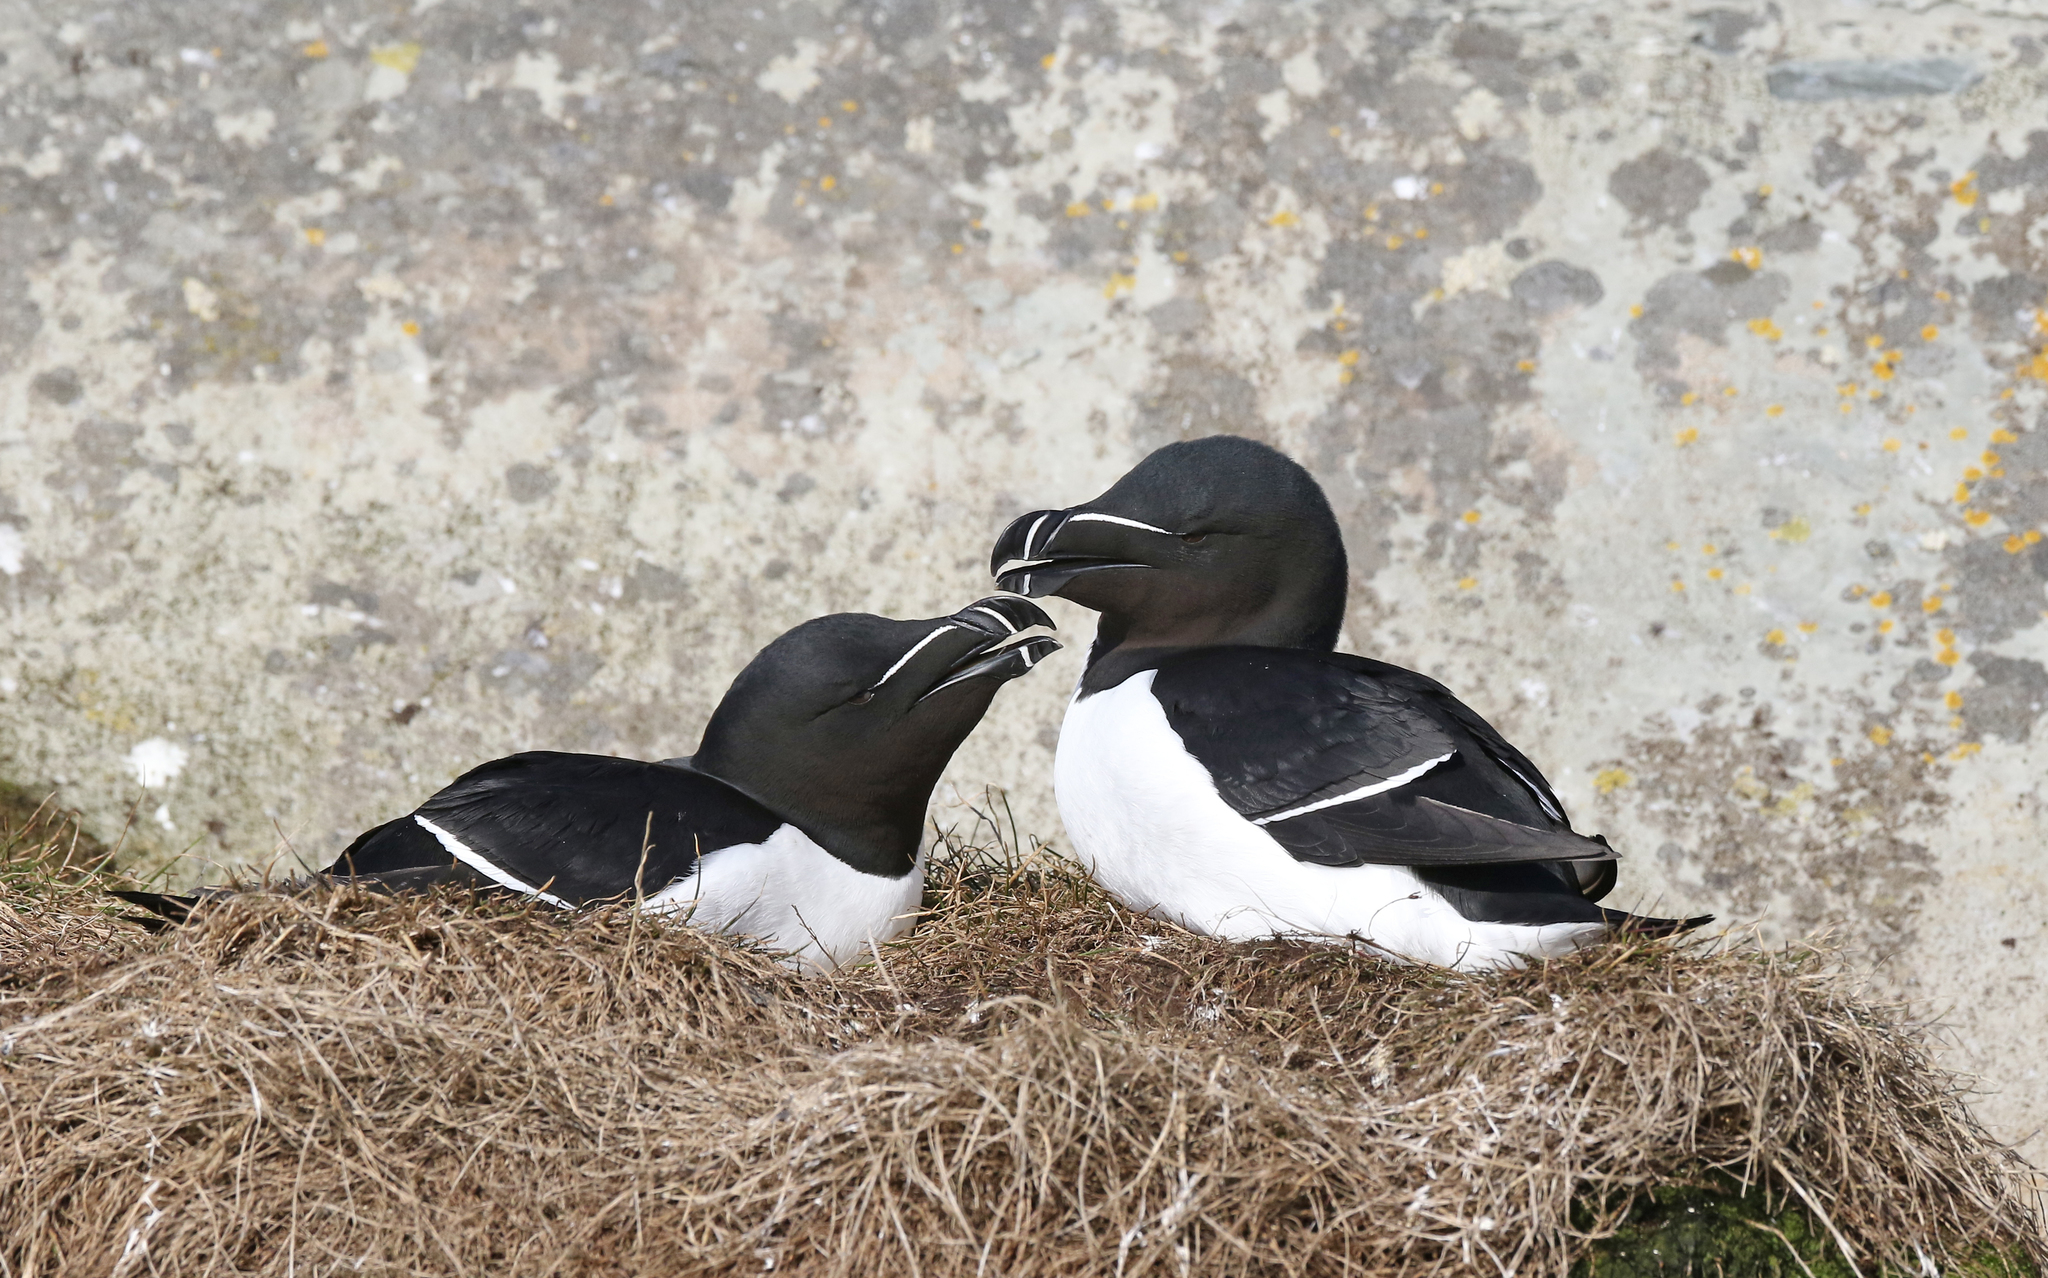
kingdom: Animalia
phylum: Chordata
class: Aves
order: Charadriiformes
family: Alcidae
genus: Alca
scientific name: Alca torda
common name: Razorbill
